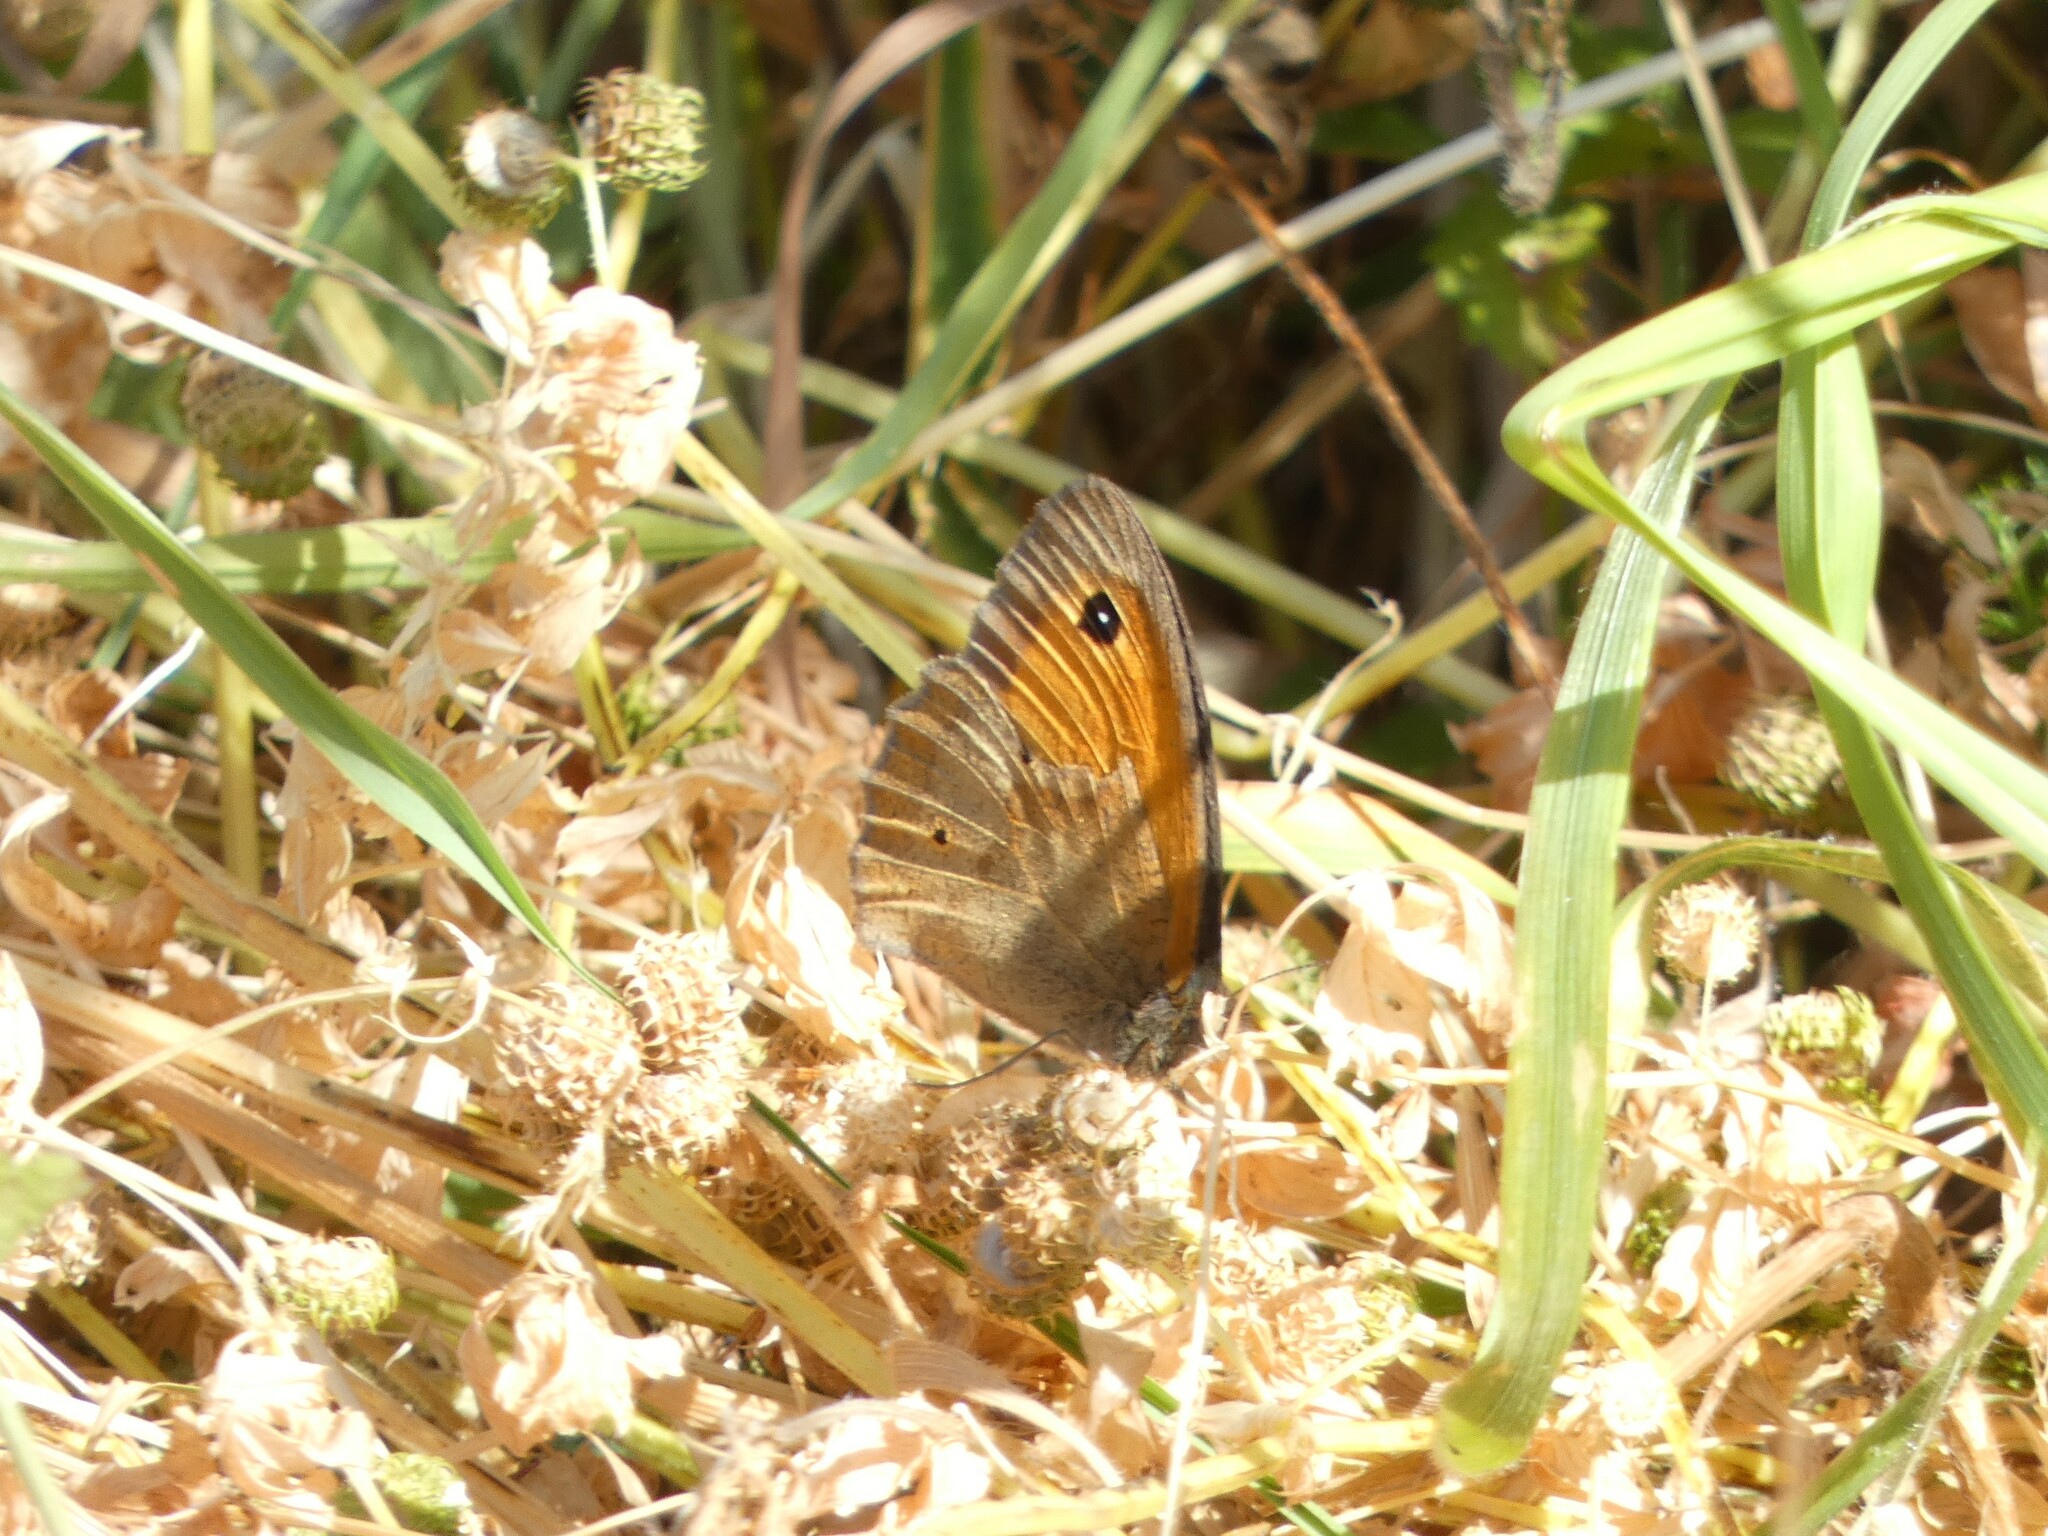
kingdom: Animalia
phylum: Arthropoda
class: Insecta
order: Lepidoptera
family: Nymphalidae
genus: Maniola
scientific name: Maniola jurtina
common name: Meadow brown
